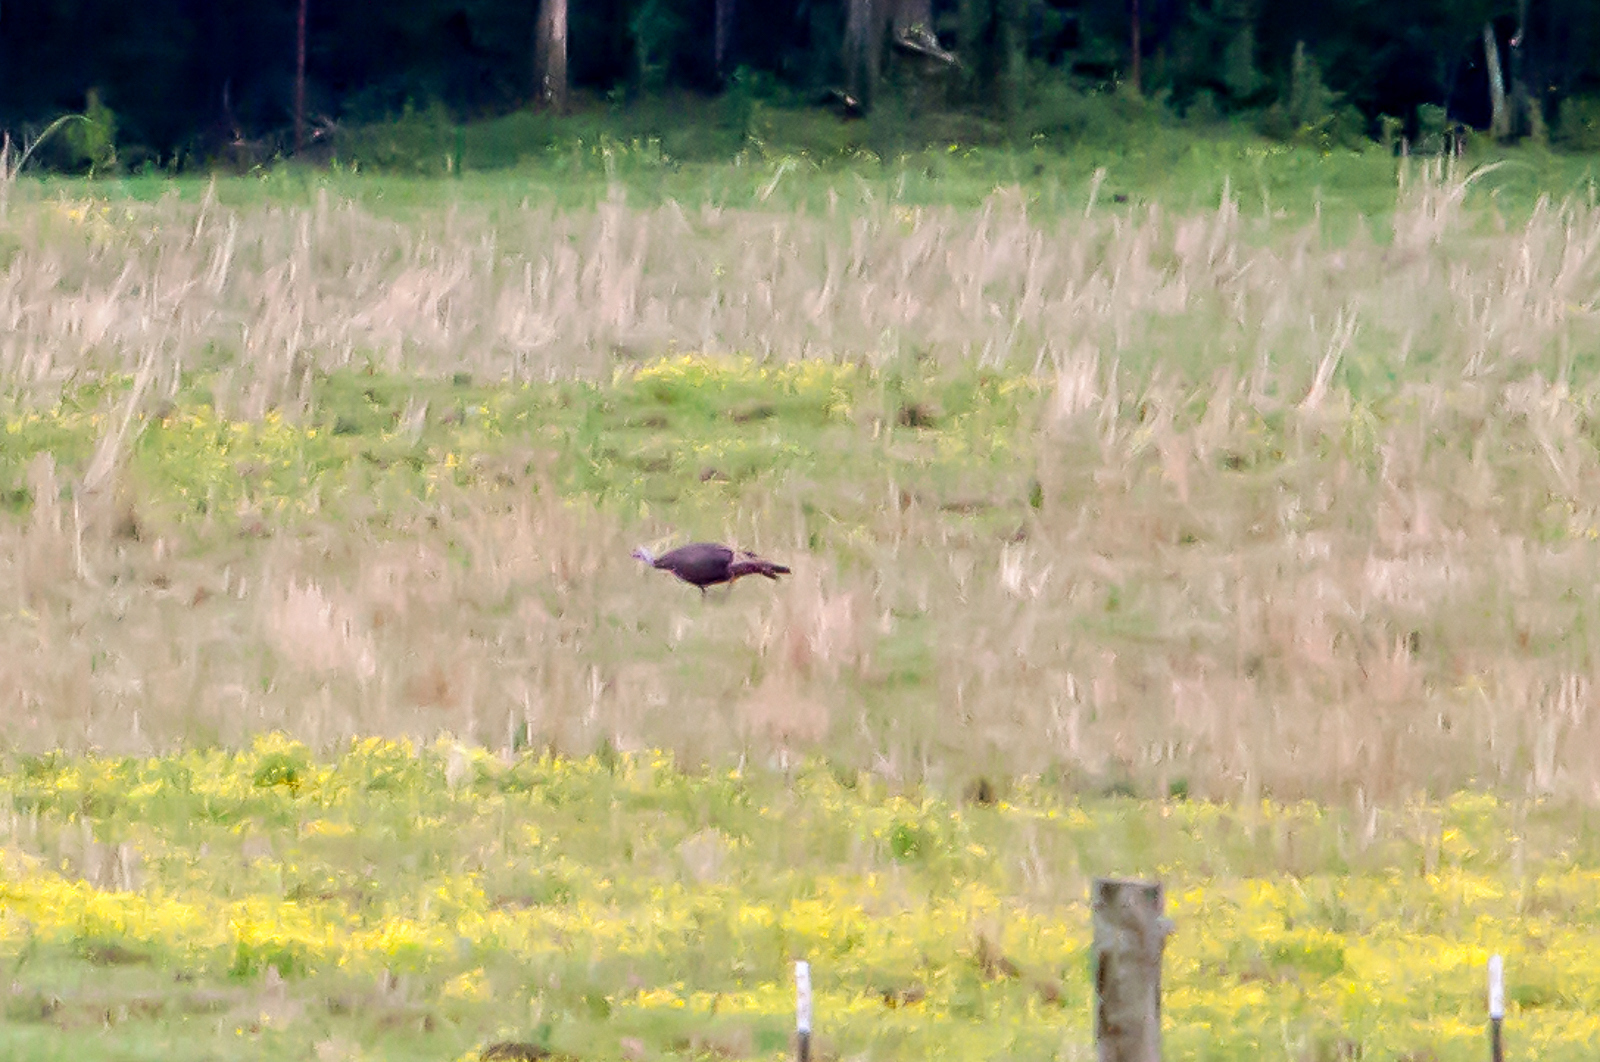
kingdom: Animalia
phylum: Chordata
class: Aves
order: Galliformes
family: Phasianidae
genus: Meleagris
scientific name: Meleagris gallopavo
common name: Wild turkey
